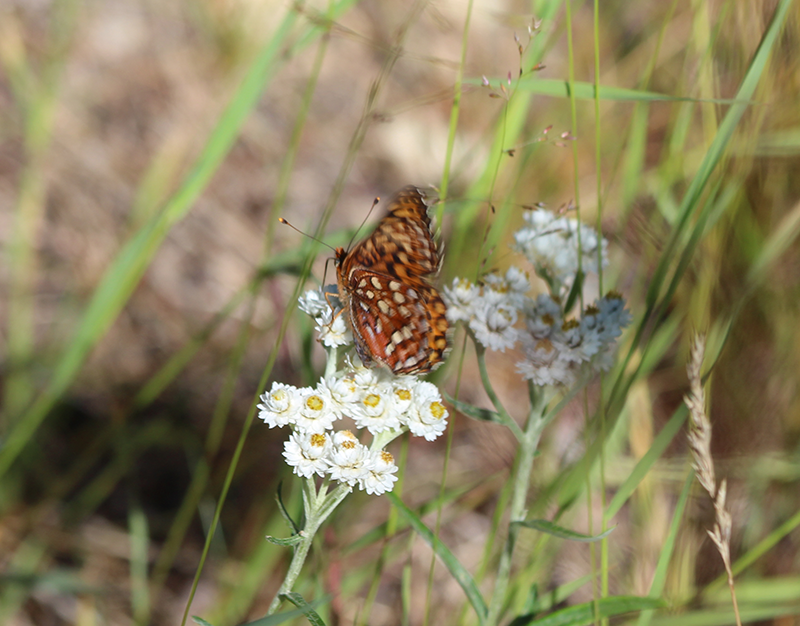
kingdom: Animalia
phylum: Arthropoda
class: Insecta
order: Lepidoptera
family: Nymphalidae
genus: Speyeria
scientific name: Speyeria hydaspe
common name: Hydaspe fritillary
